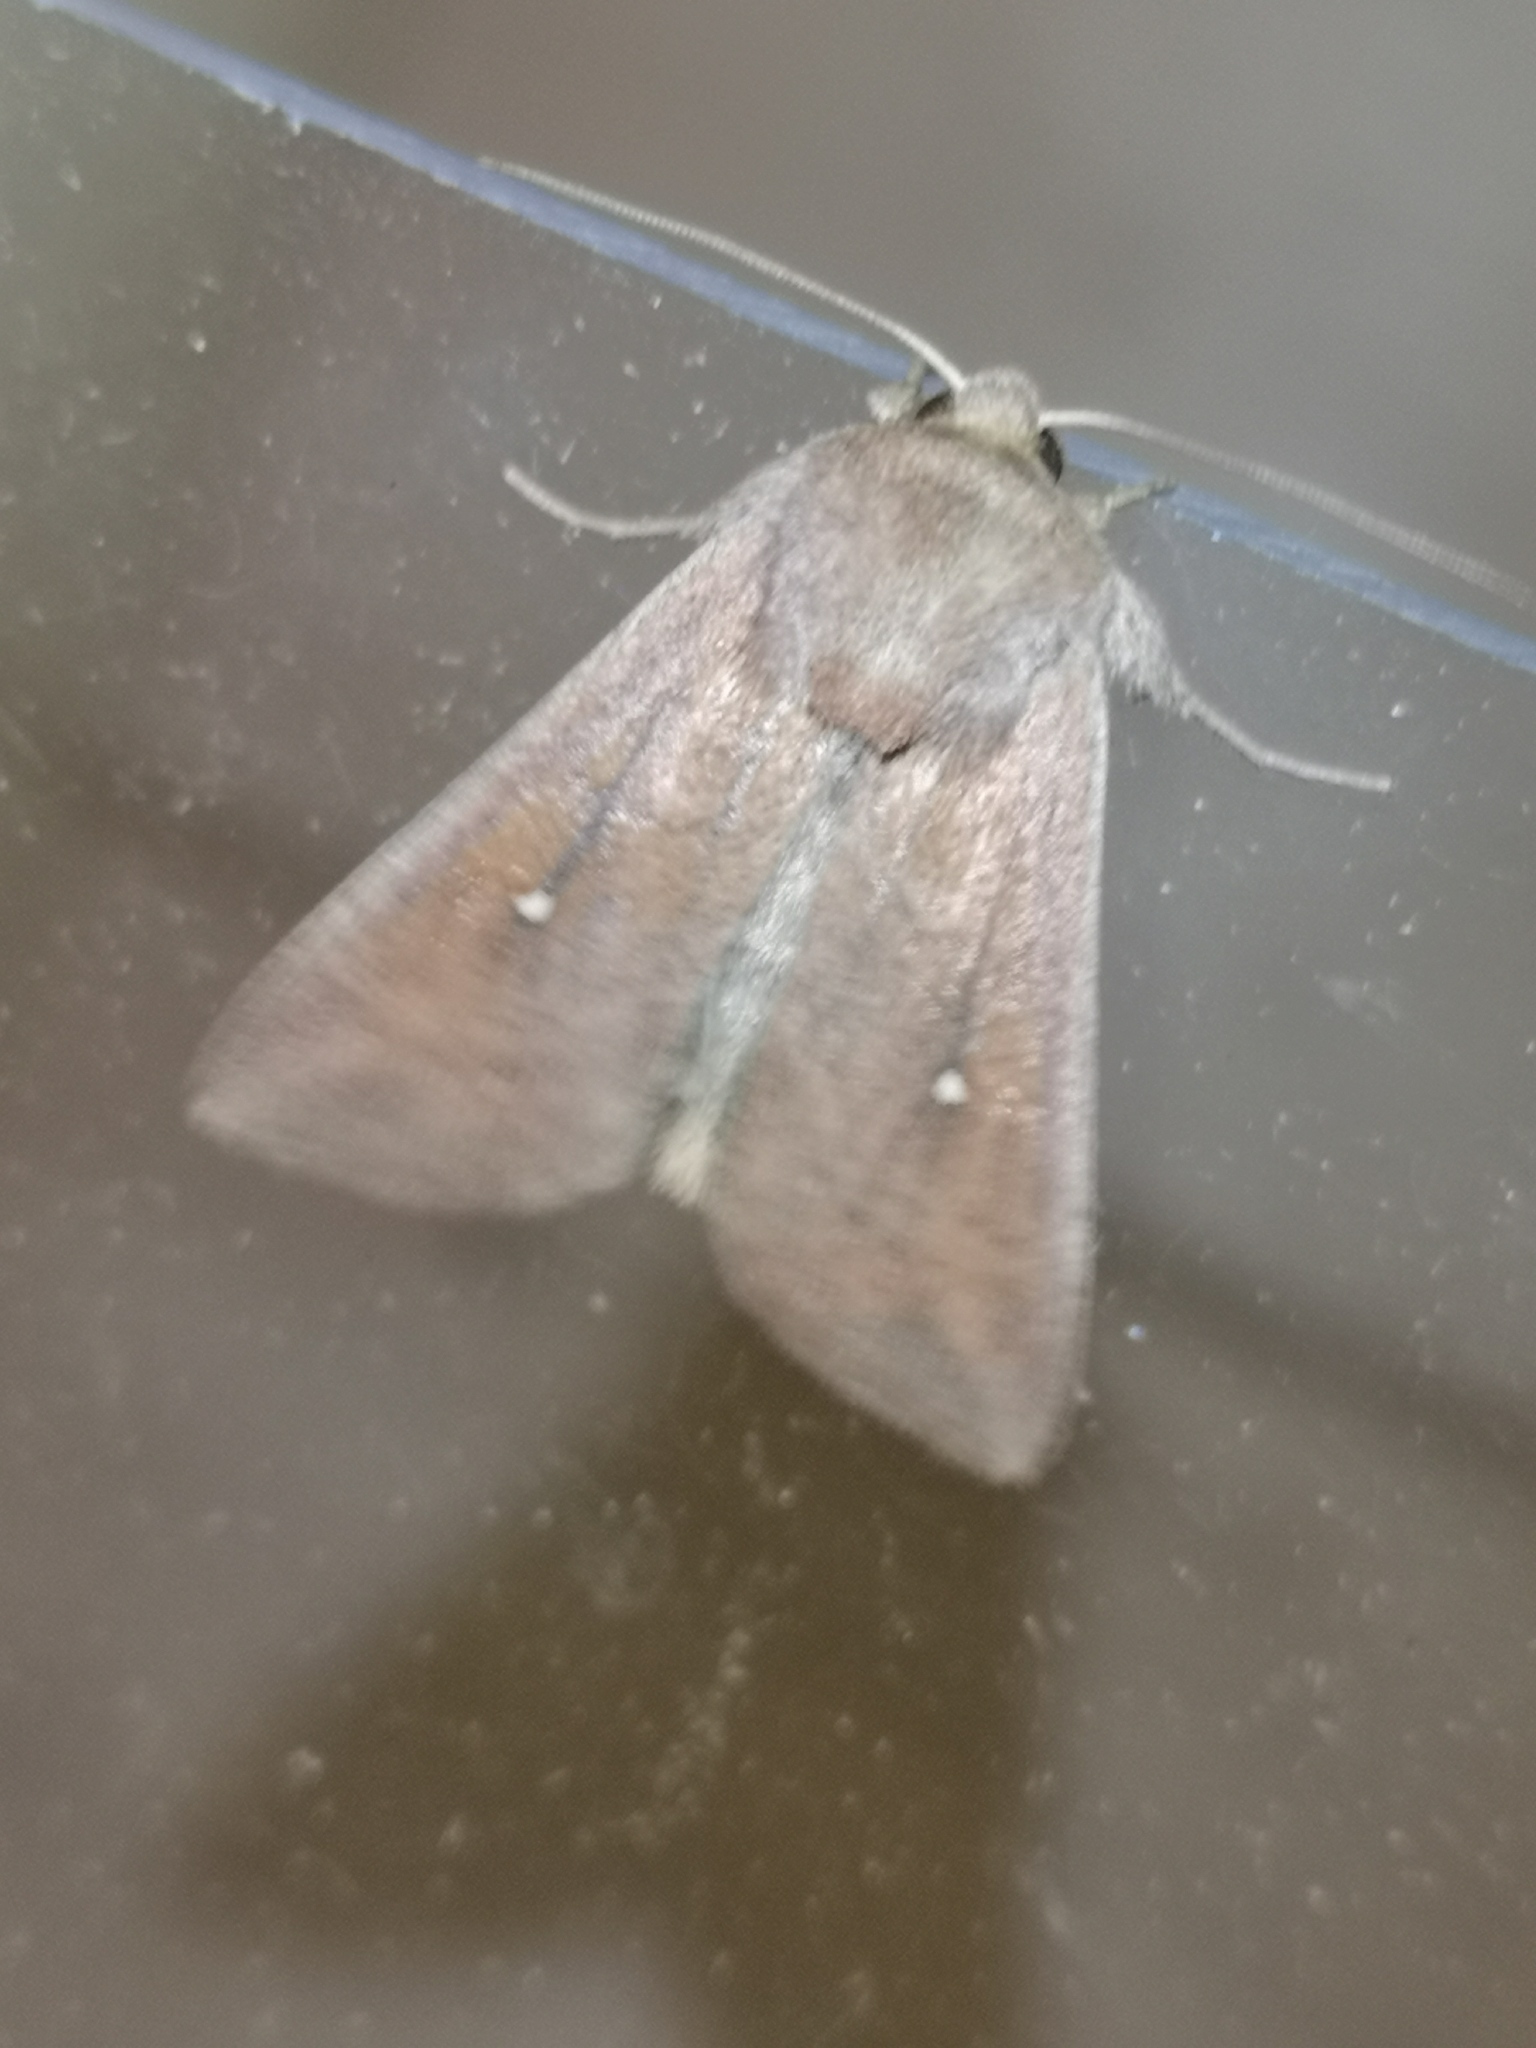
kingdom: Animalia
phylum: Arthropoda
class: Insecta
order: Lepidoptera
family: Noctuidae
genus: Mythimna
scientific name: Mythimna albipuncta
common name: White-point
